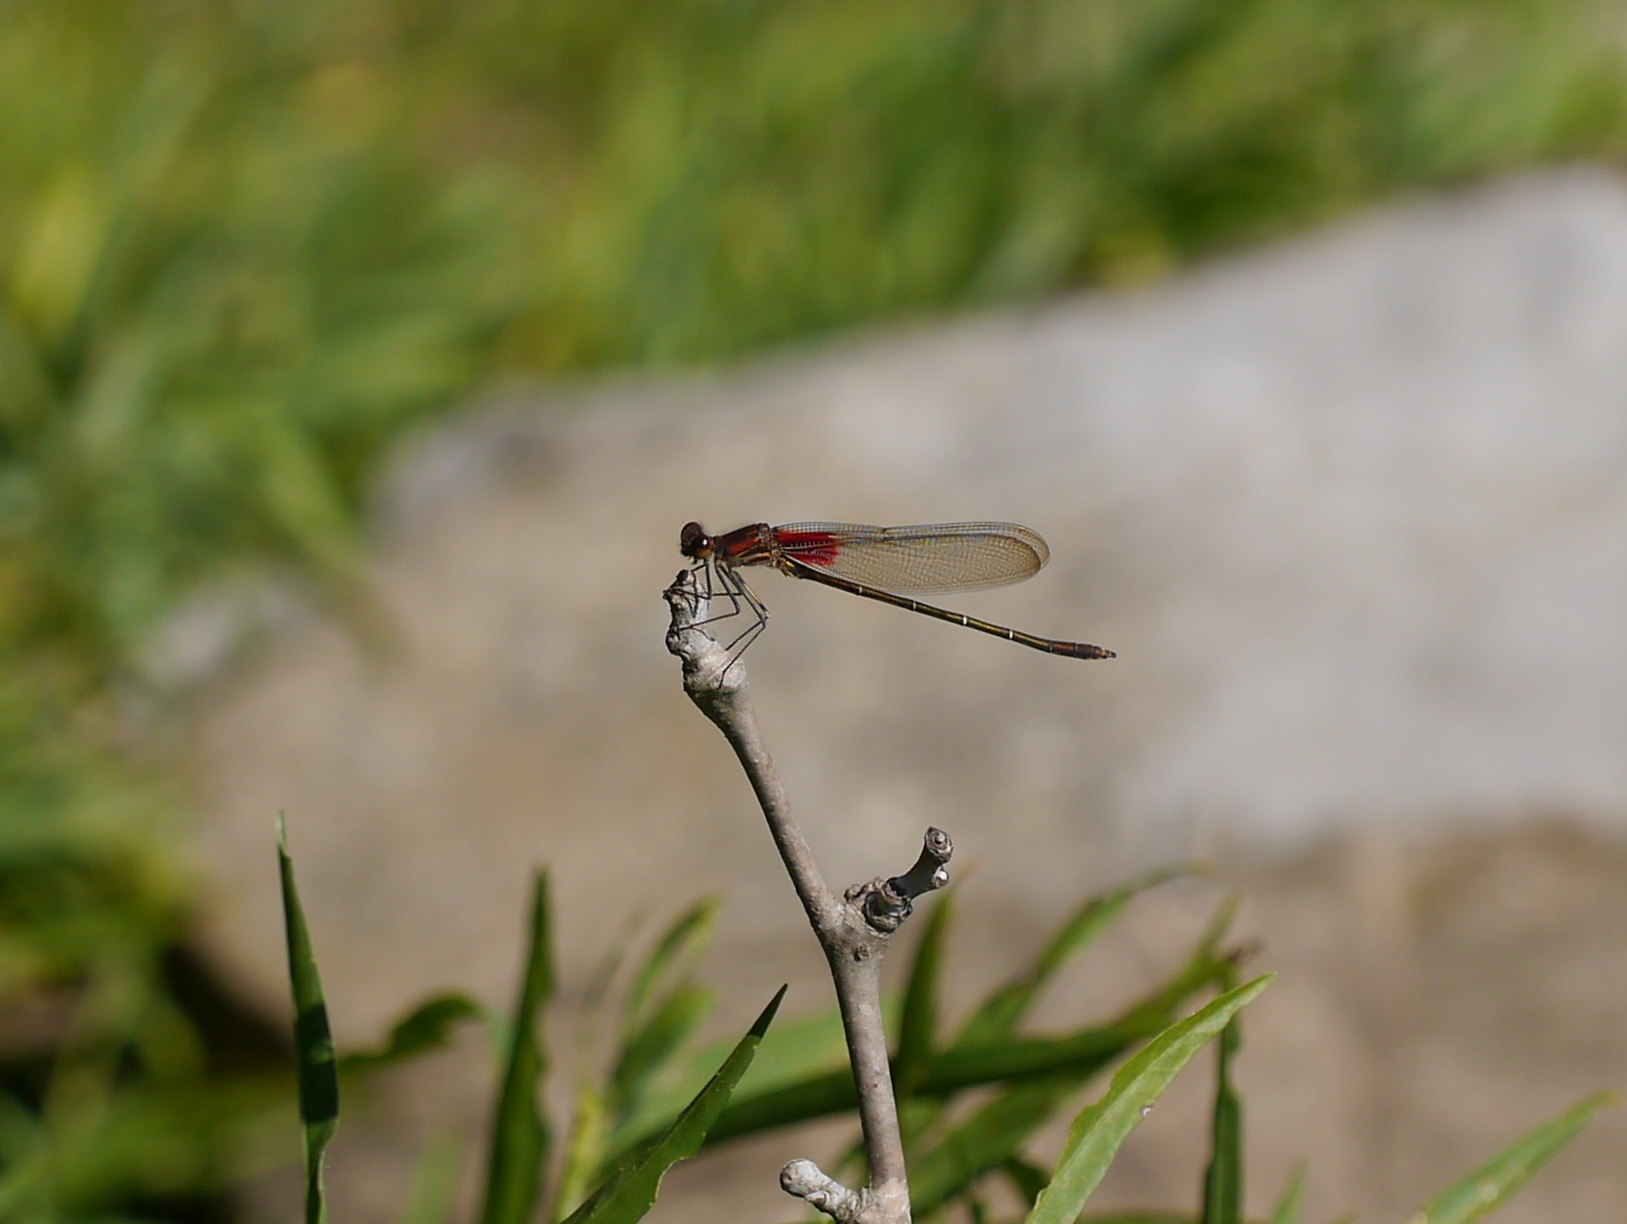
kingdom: Animalia
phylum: Arthropoda
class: Insecta
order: Odonata
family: Calopterygidae
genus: Hetaerina
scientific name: Hetaerina americana
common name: American rubyspot
